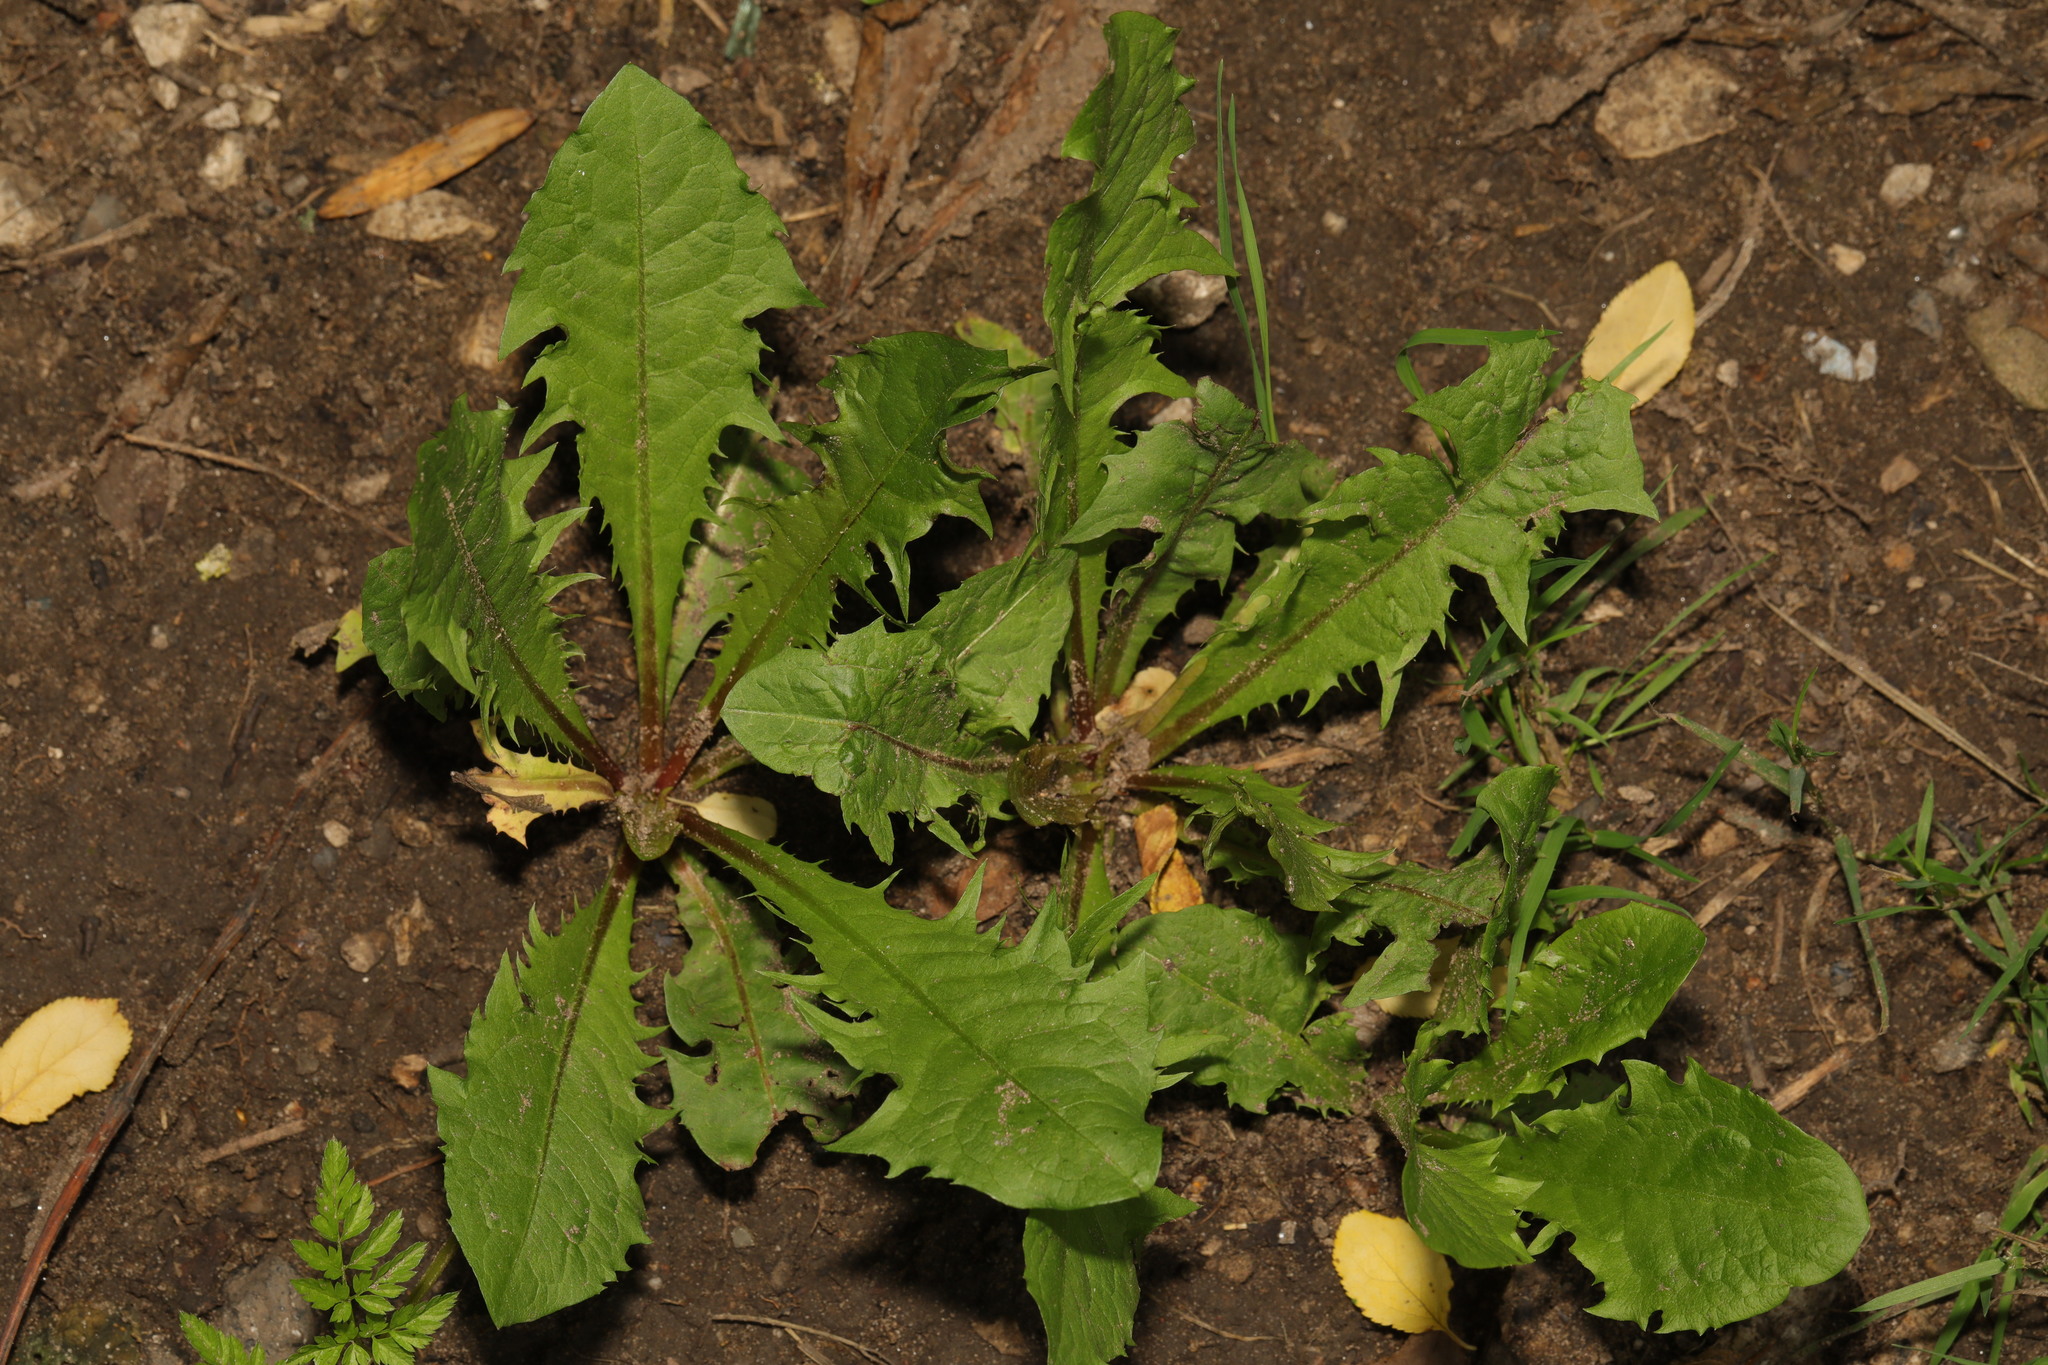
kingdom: Plantae
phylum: Tracheophyta
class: Magnoliopsida
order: Asterales
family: Asteraceae
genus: Taraxacum
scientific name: Taraxacum officinale
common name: Common dandelion
